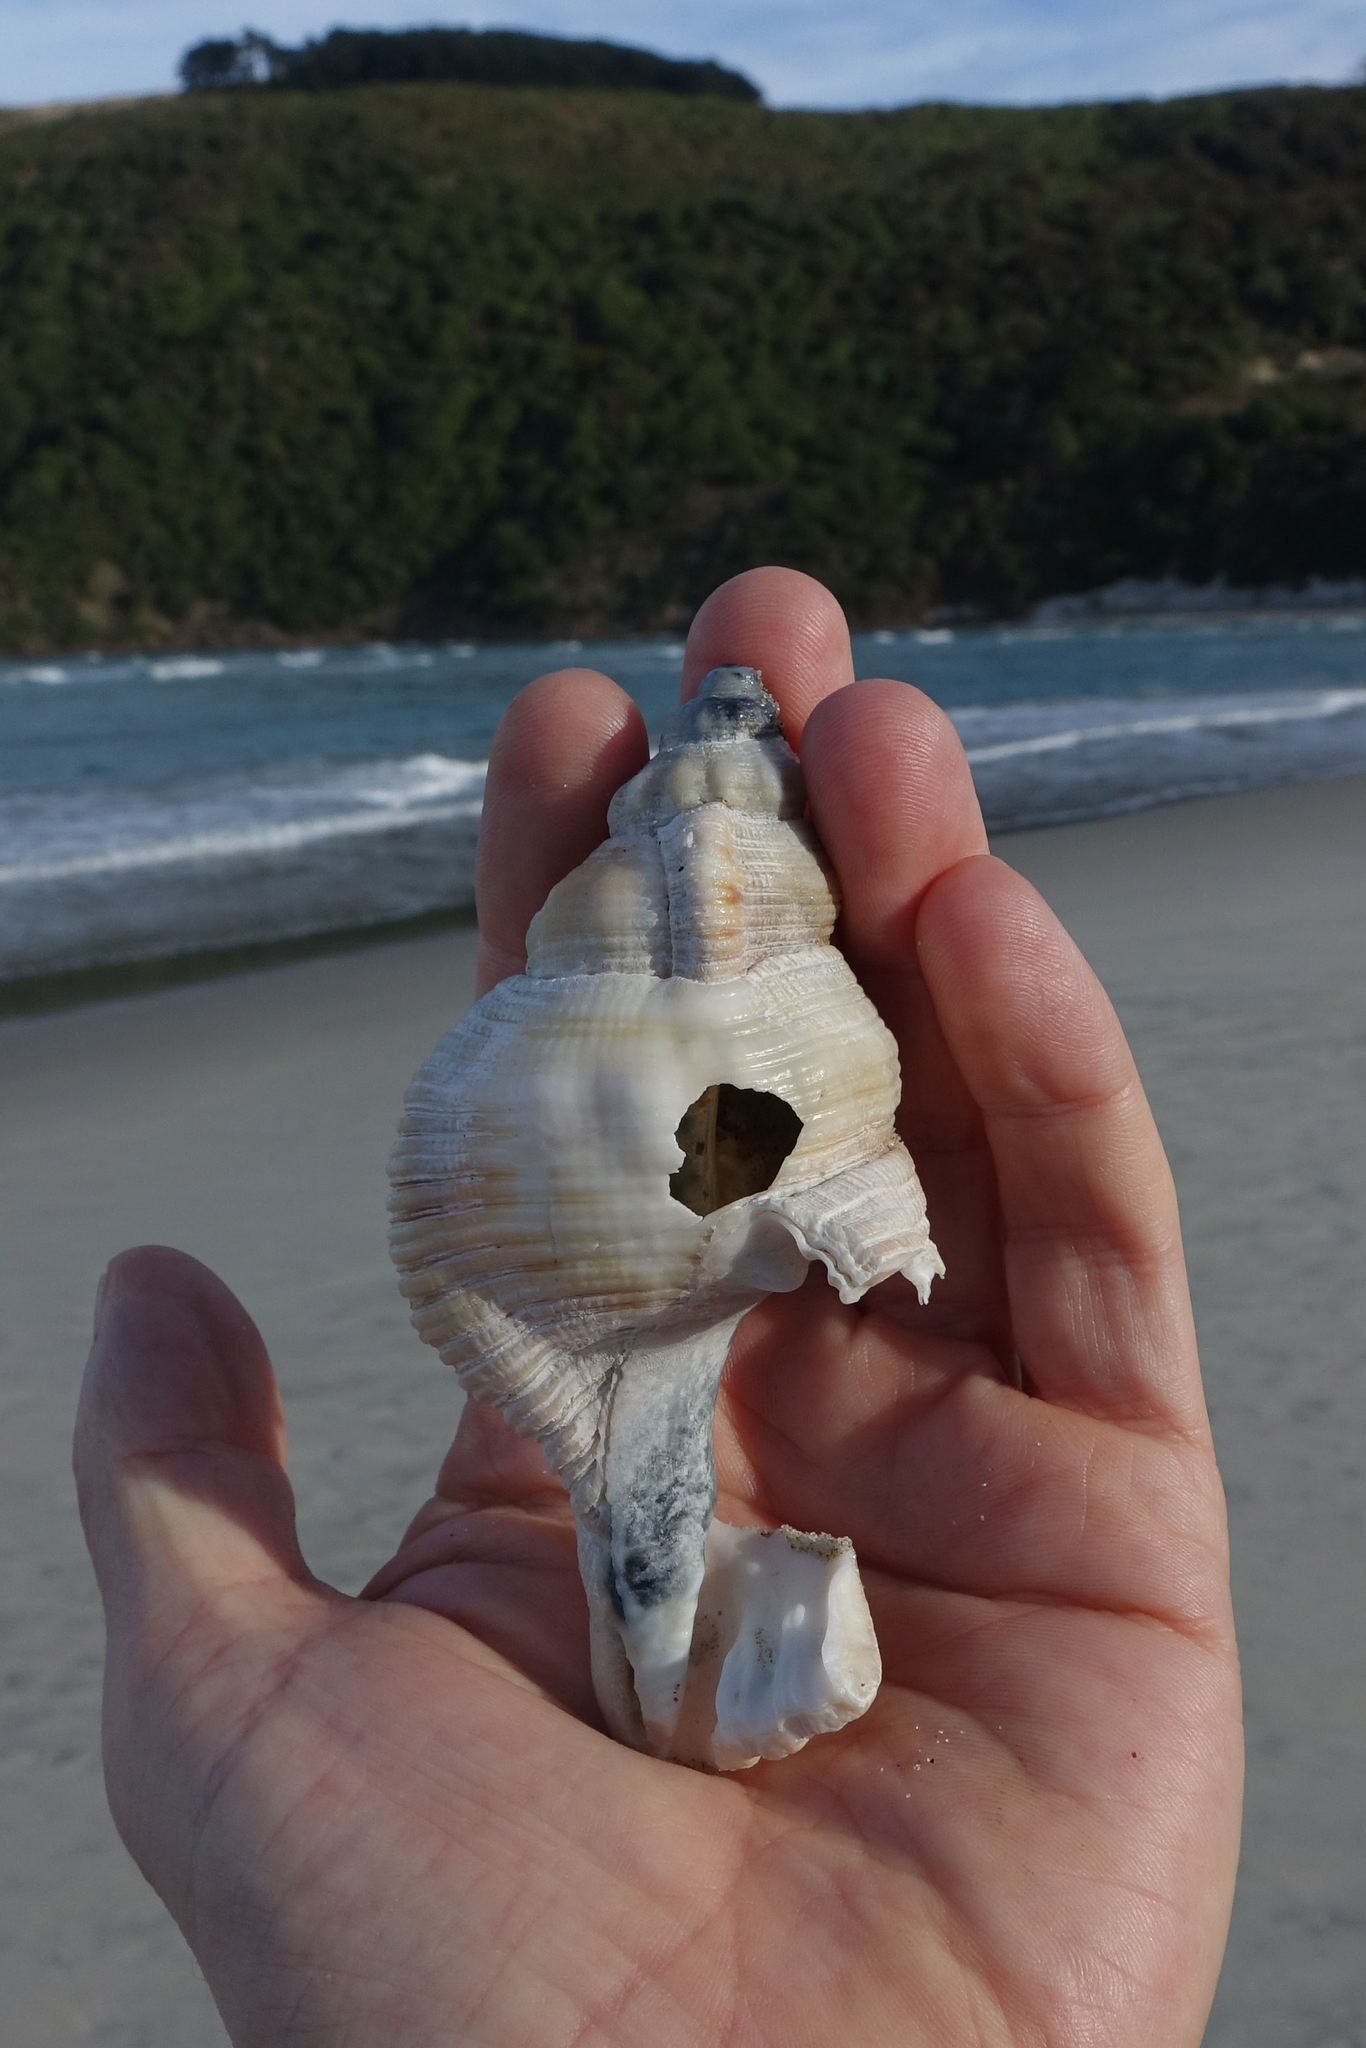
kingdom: Animalia
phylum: Mollusca
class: Gastropoda
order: Littorinimorpha
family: Cymatiidae
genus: Cabestana
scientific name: Cabestana spengleri
